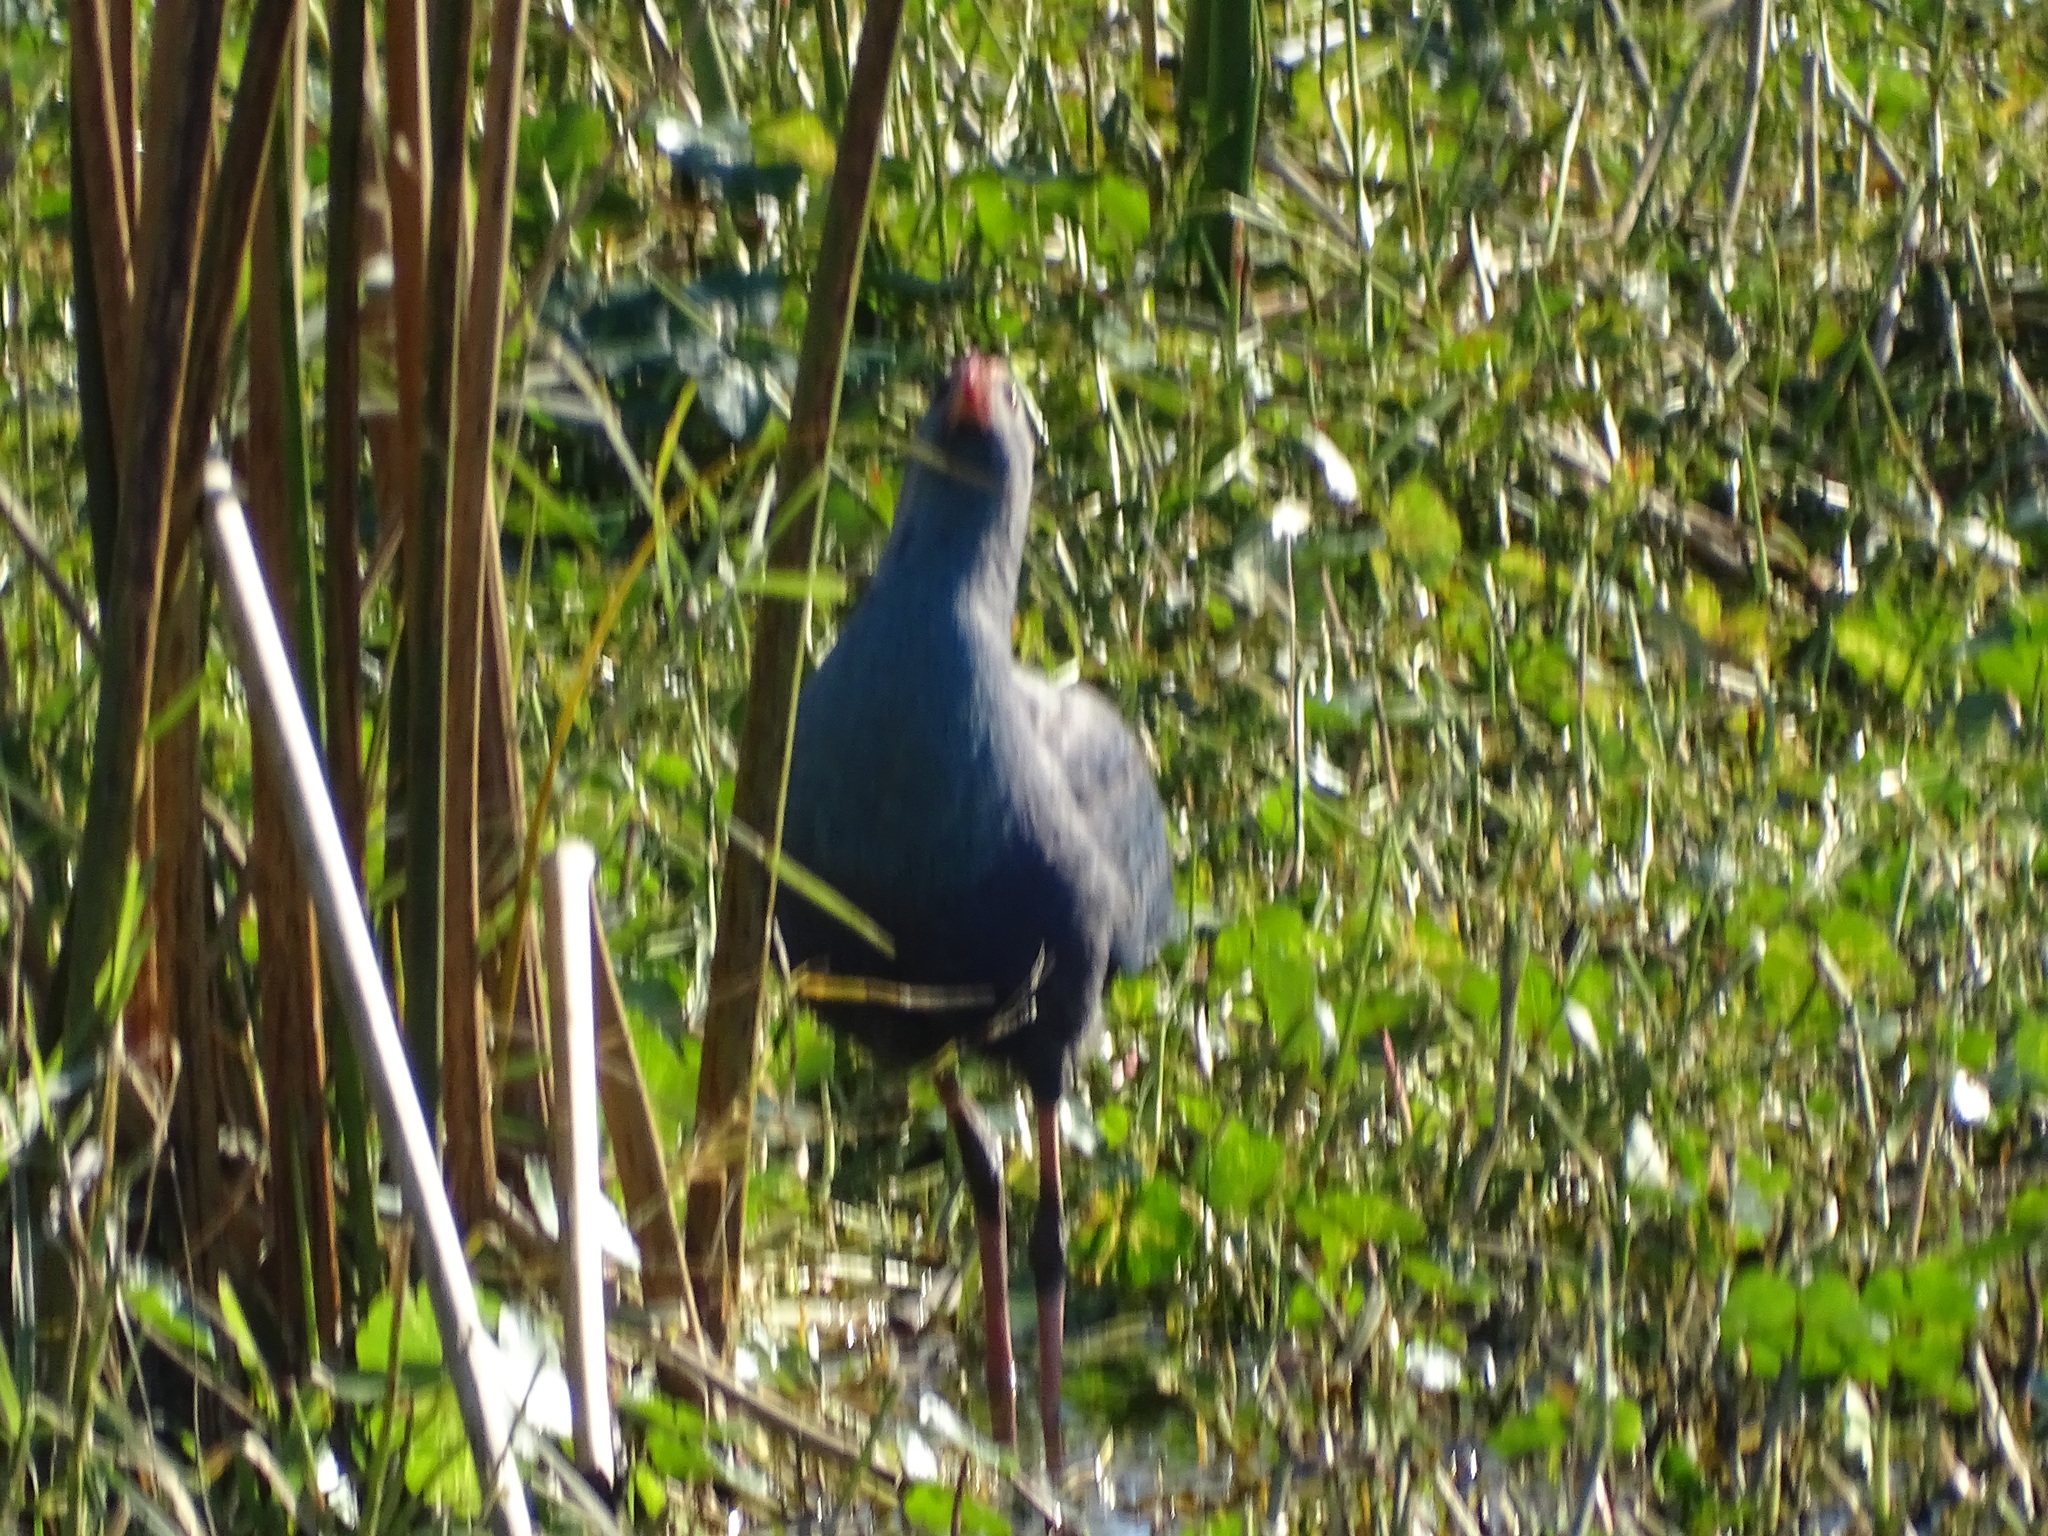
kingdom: Animalia
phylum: Chordata
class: Aves
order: Gruiformes
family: Rallidae
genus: Porphyrio
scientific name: Porphyrio porphyrio
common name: Purple swamphen
